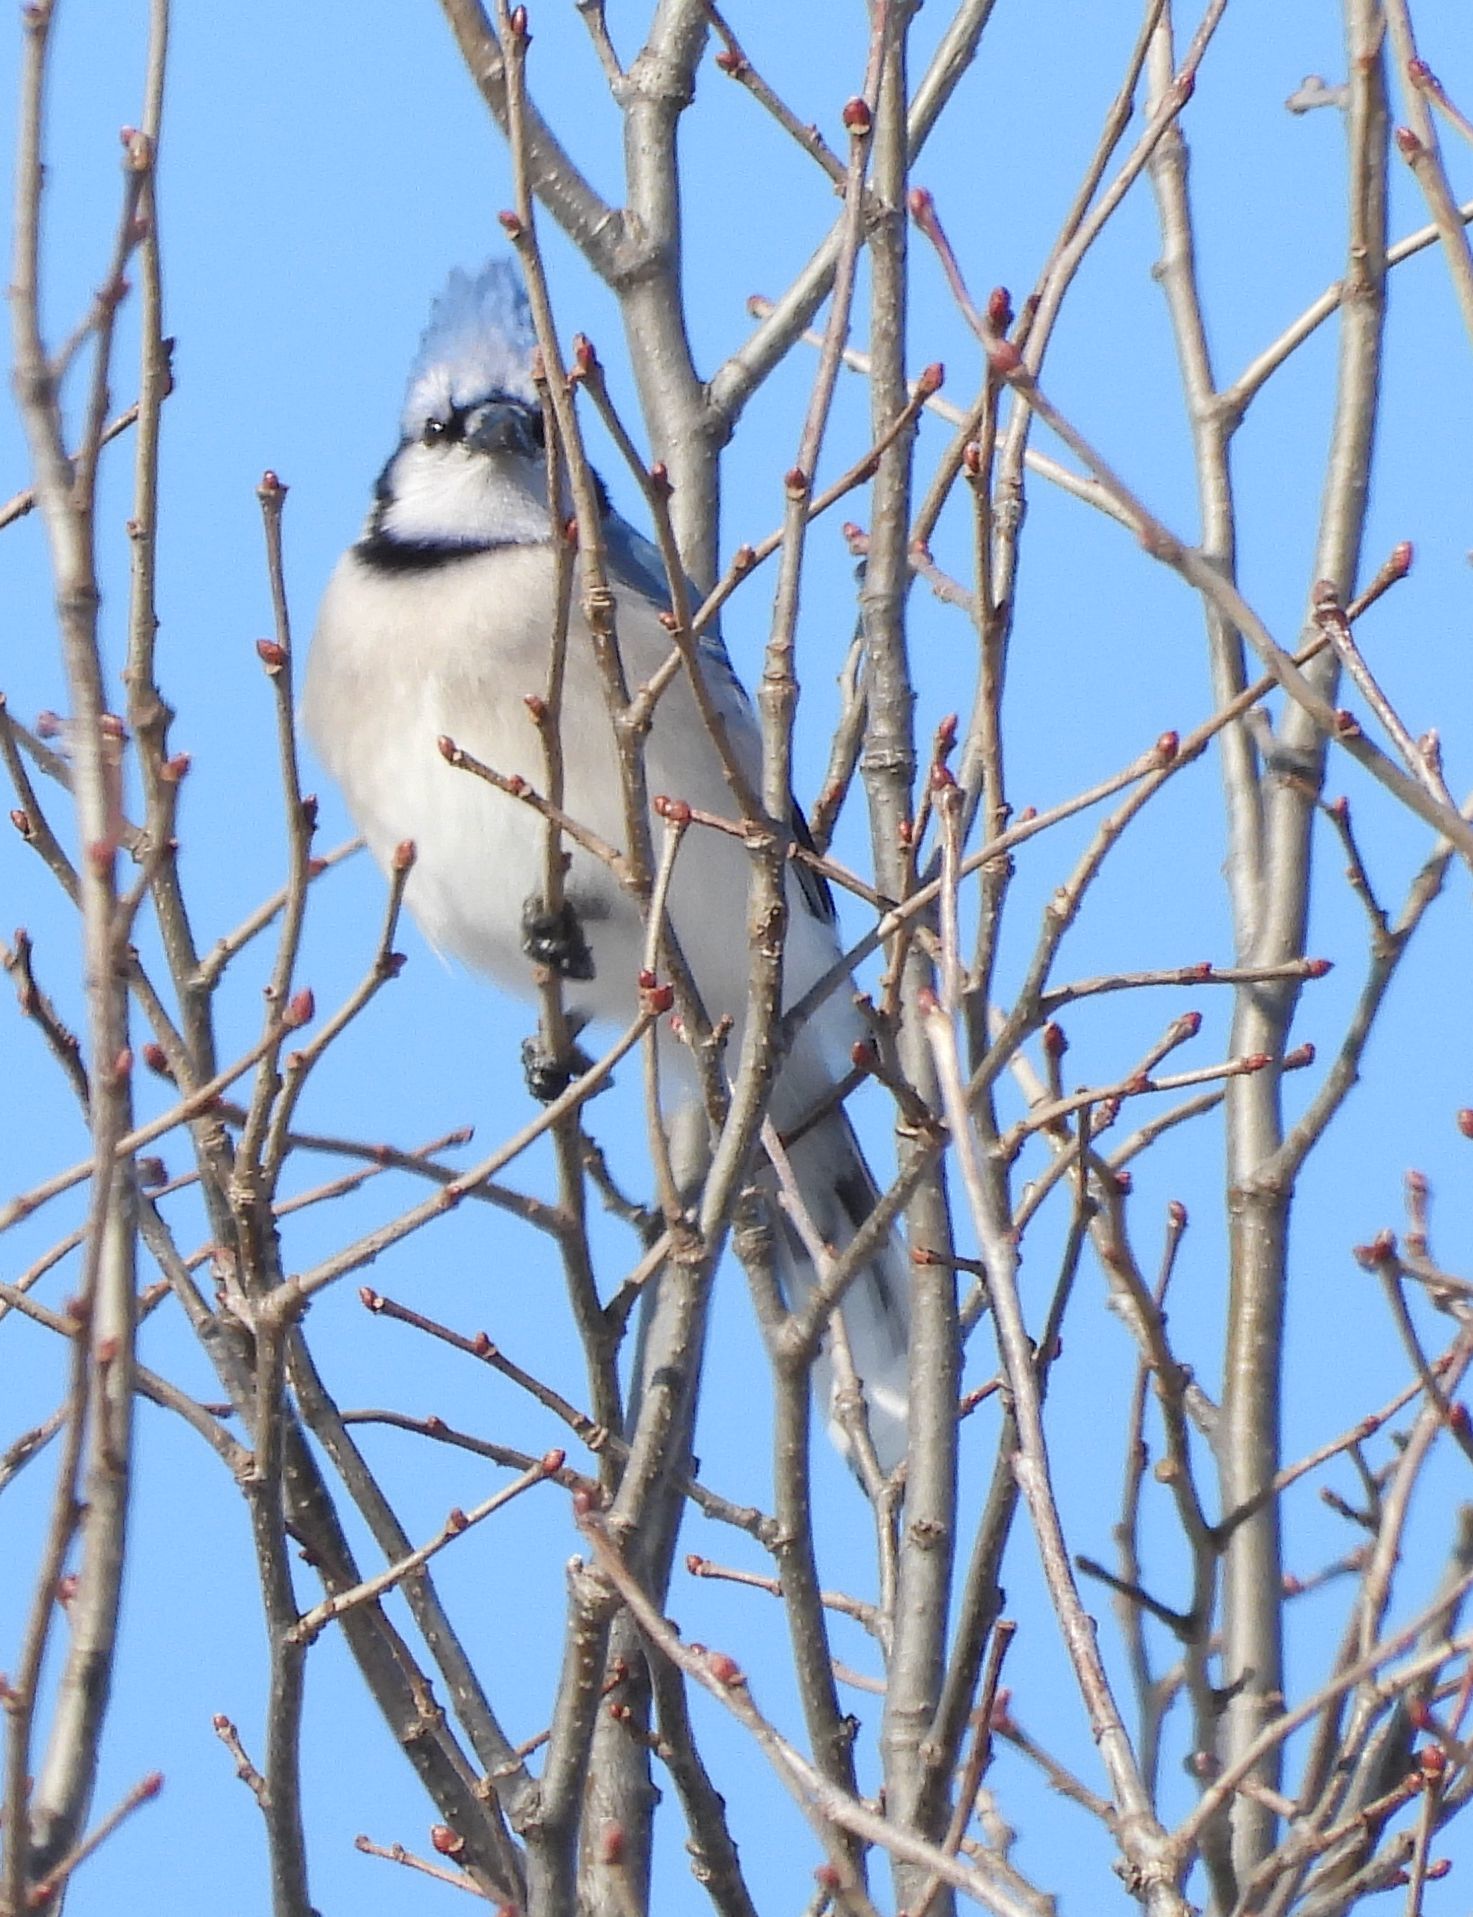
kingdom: Animalia
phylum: Chordata
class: Aves
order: Passeriformes
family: Corvidae
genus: Cyanocitta
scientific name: Cyanocitta cristata
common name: Blue jay
